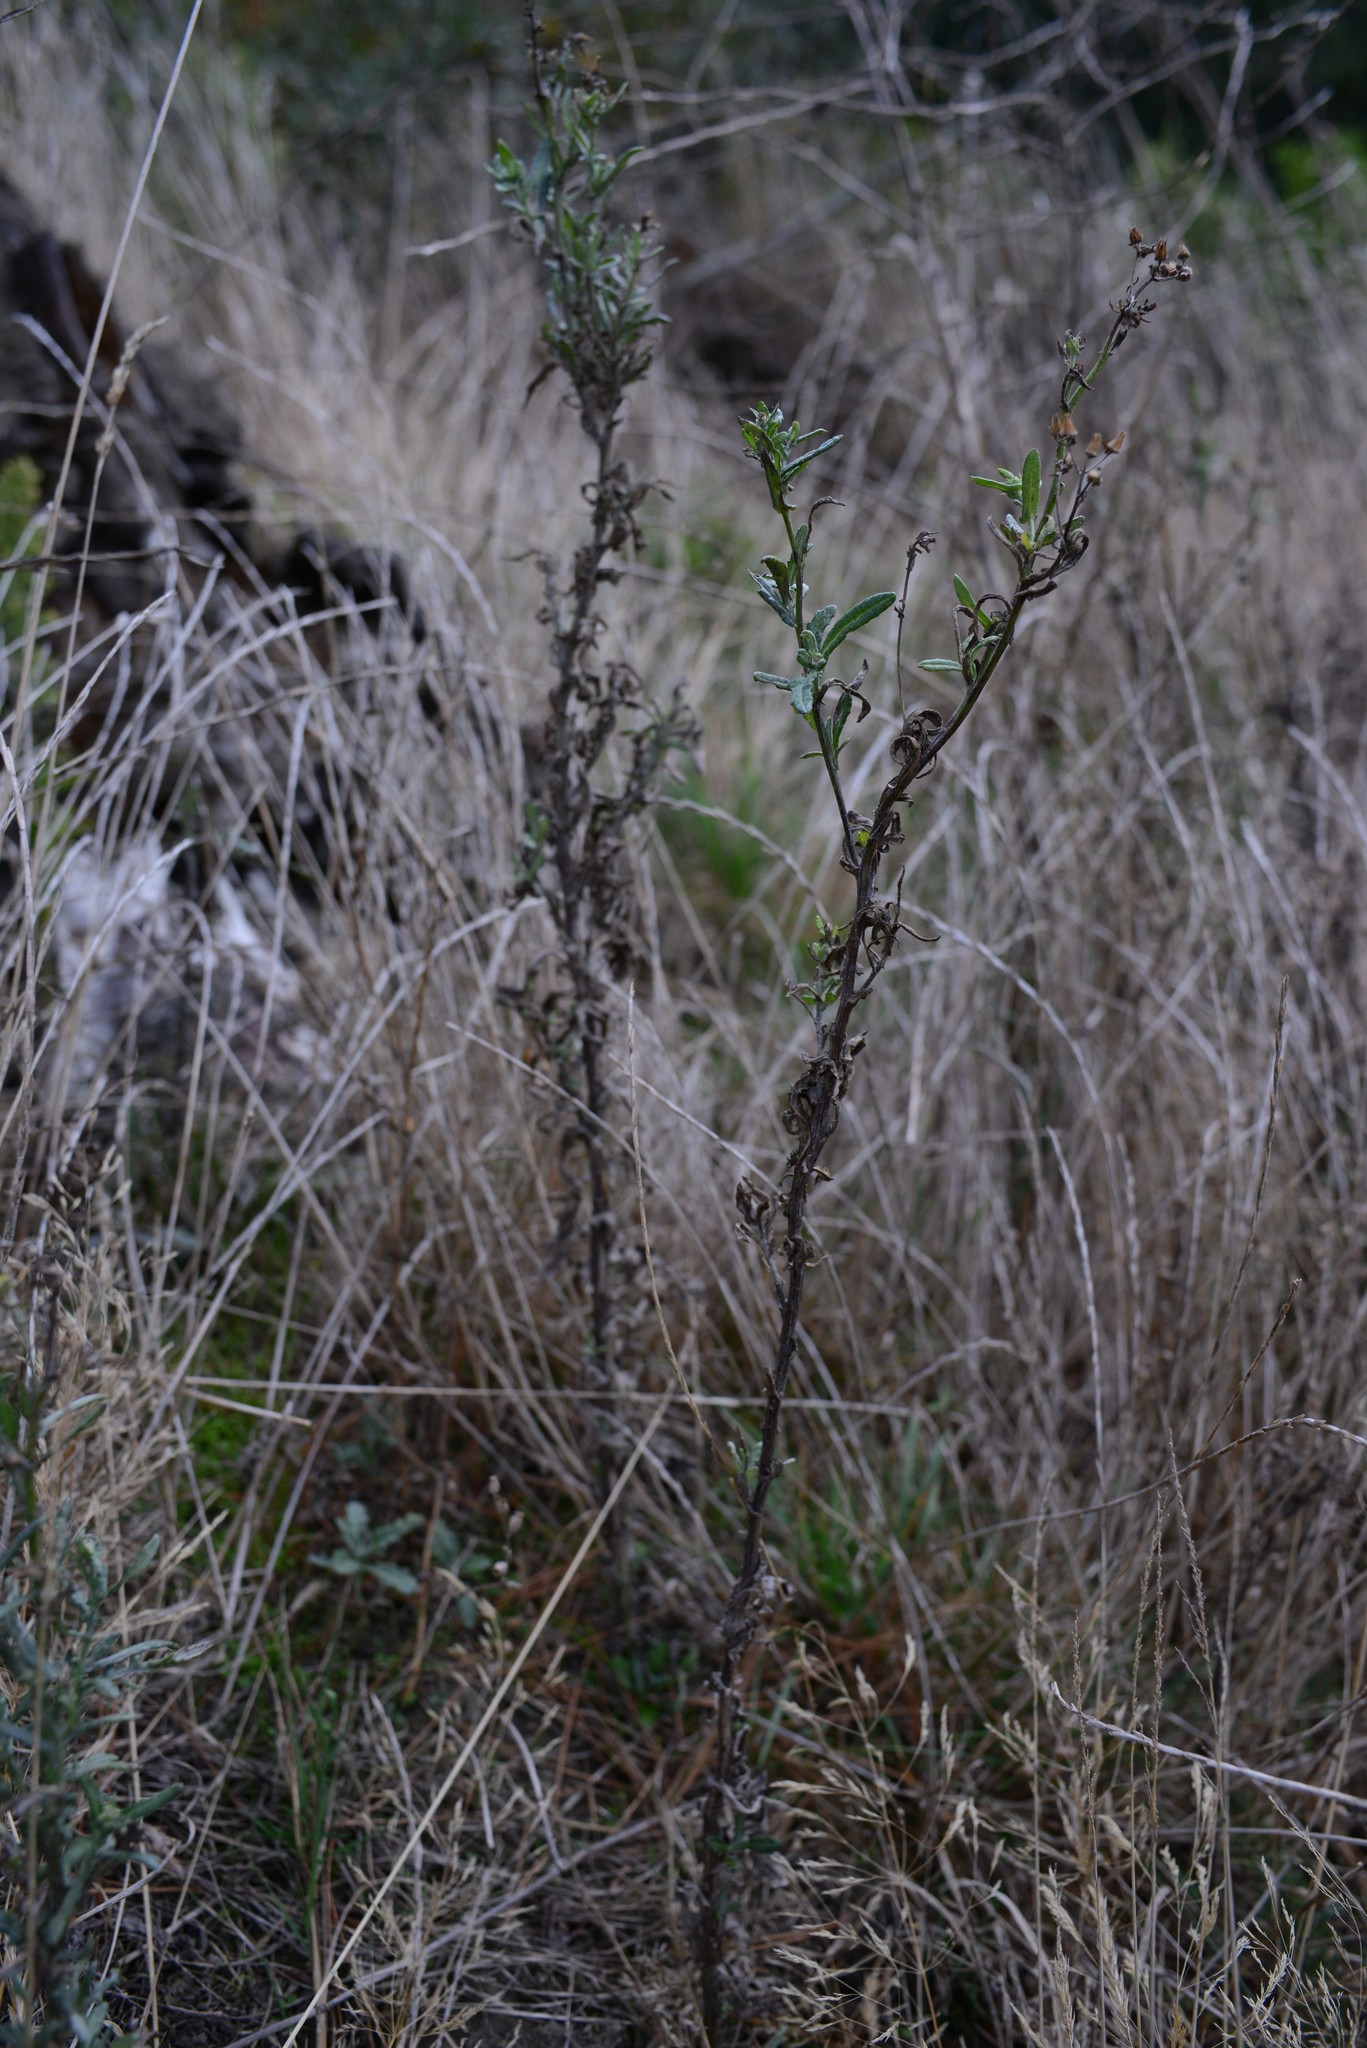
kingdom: Plantae
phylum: Tracheophyta
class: Magnoliopsida
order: Asterales
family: Asteraceae
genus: Senecio
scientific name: Senecio glomeratus
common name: Cutleaf burnweed
